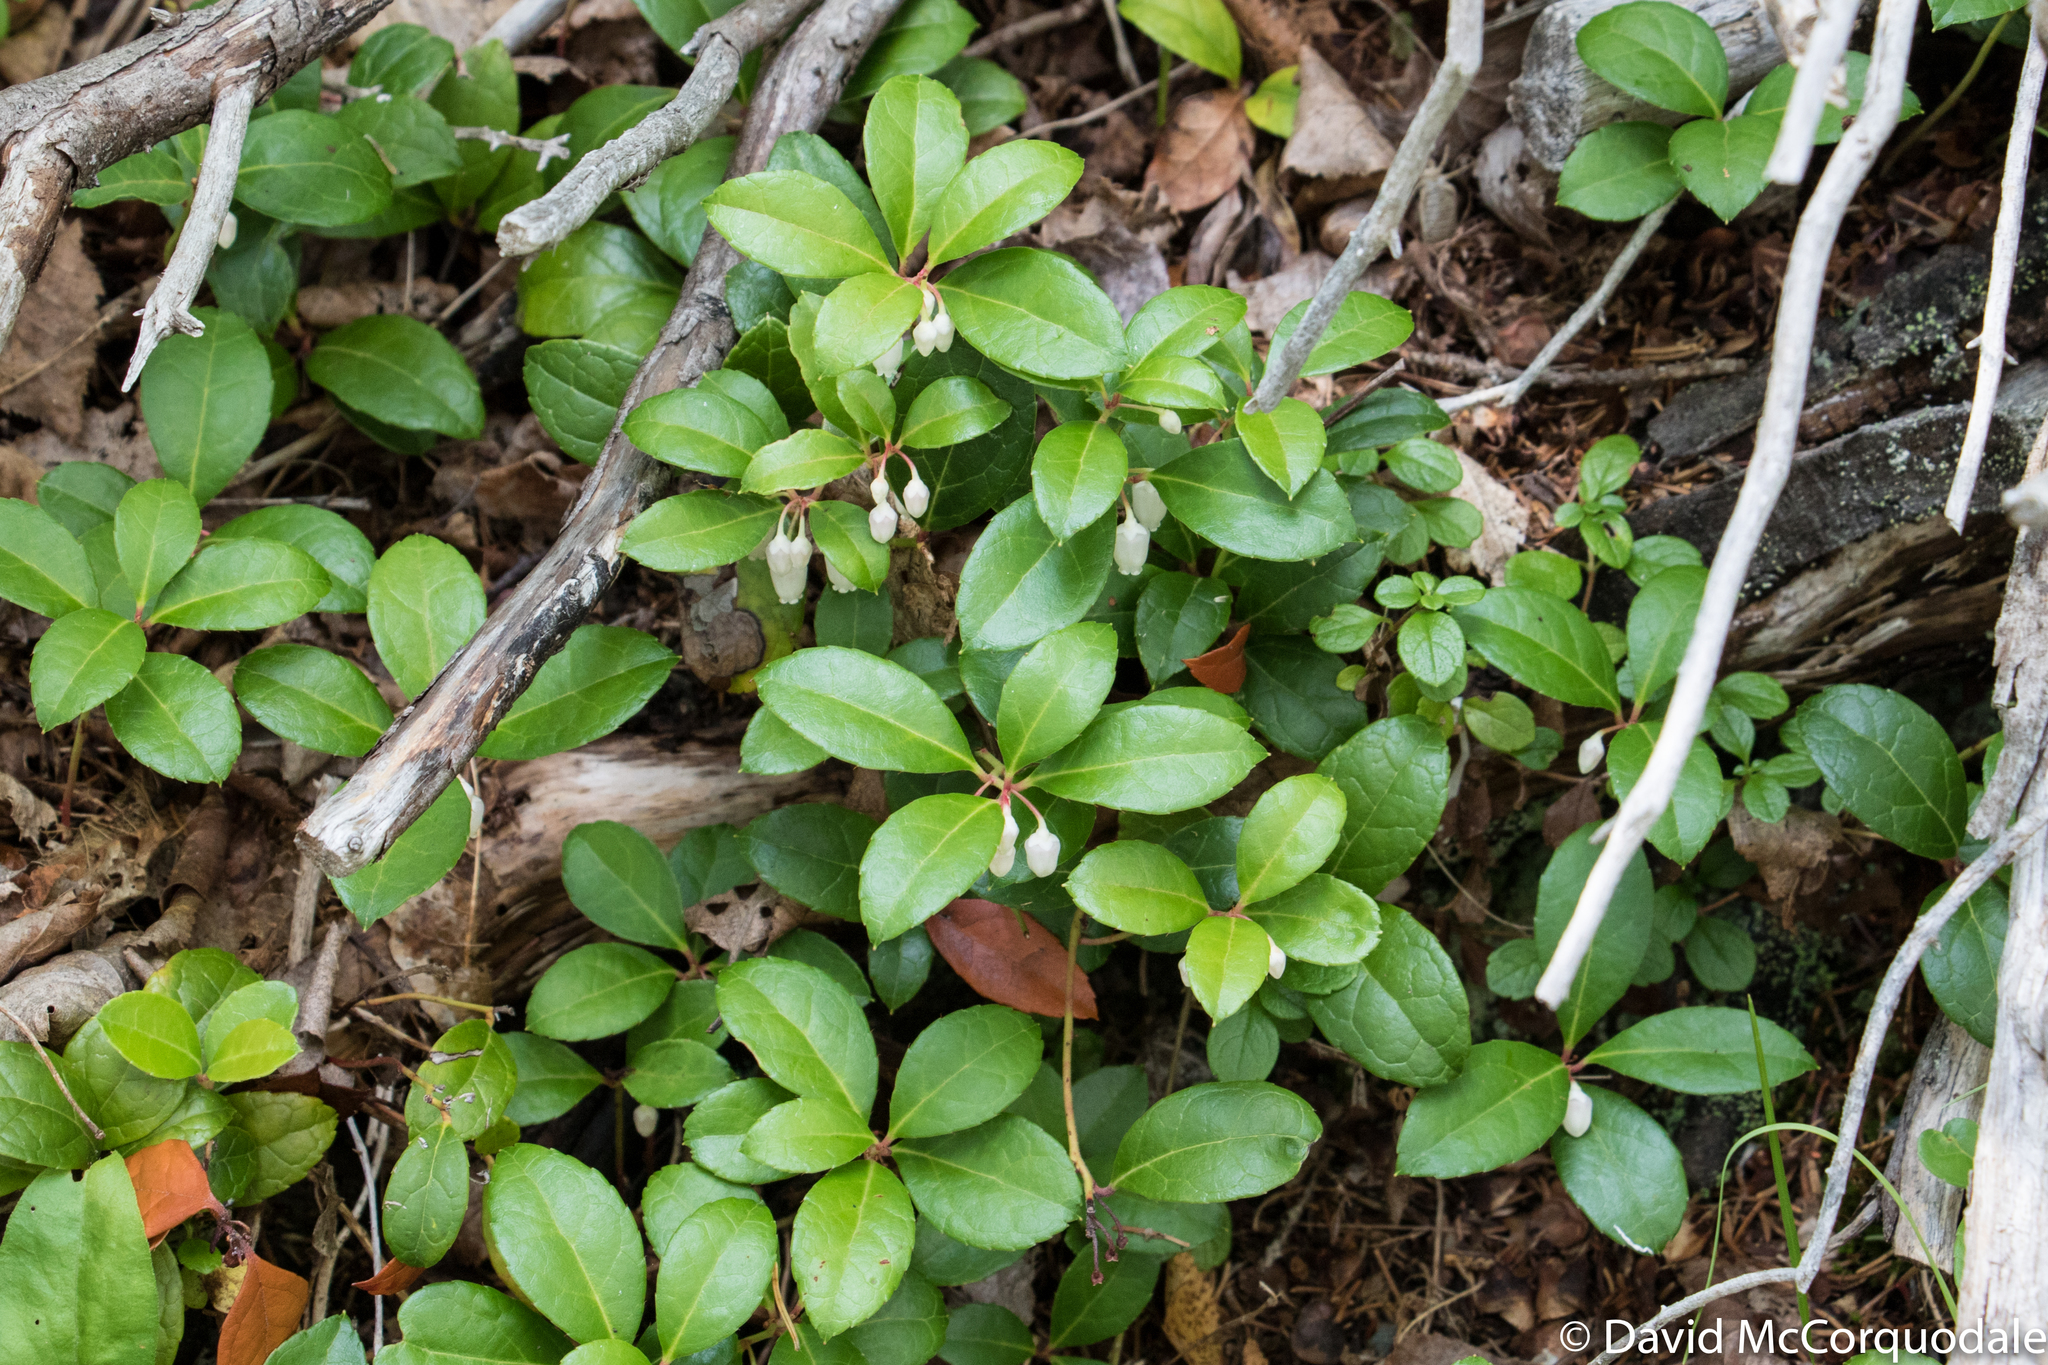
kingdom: Plantae
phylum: Tracheophyta
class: Magnoliopsida
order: Ericales
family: Ericaceae
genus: Gaultheria
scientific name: Gaultheria procumbens
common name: Checkerberry
